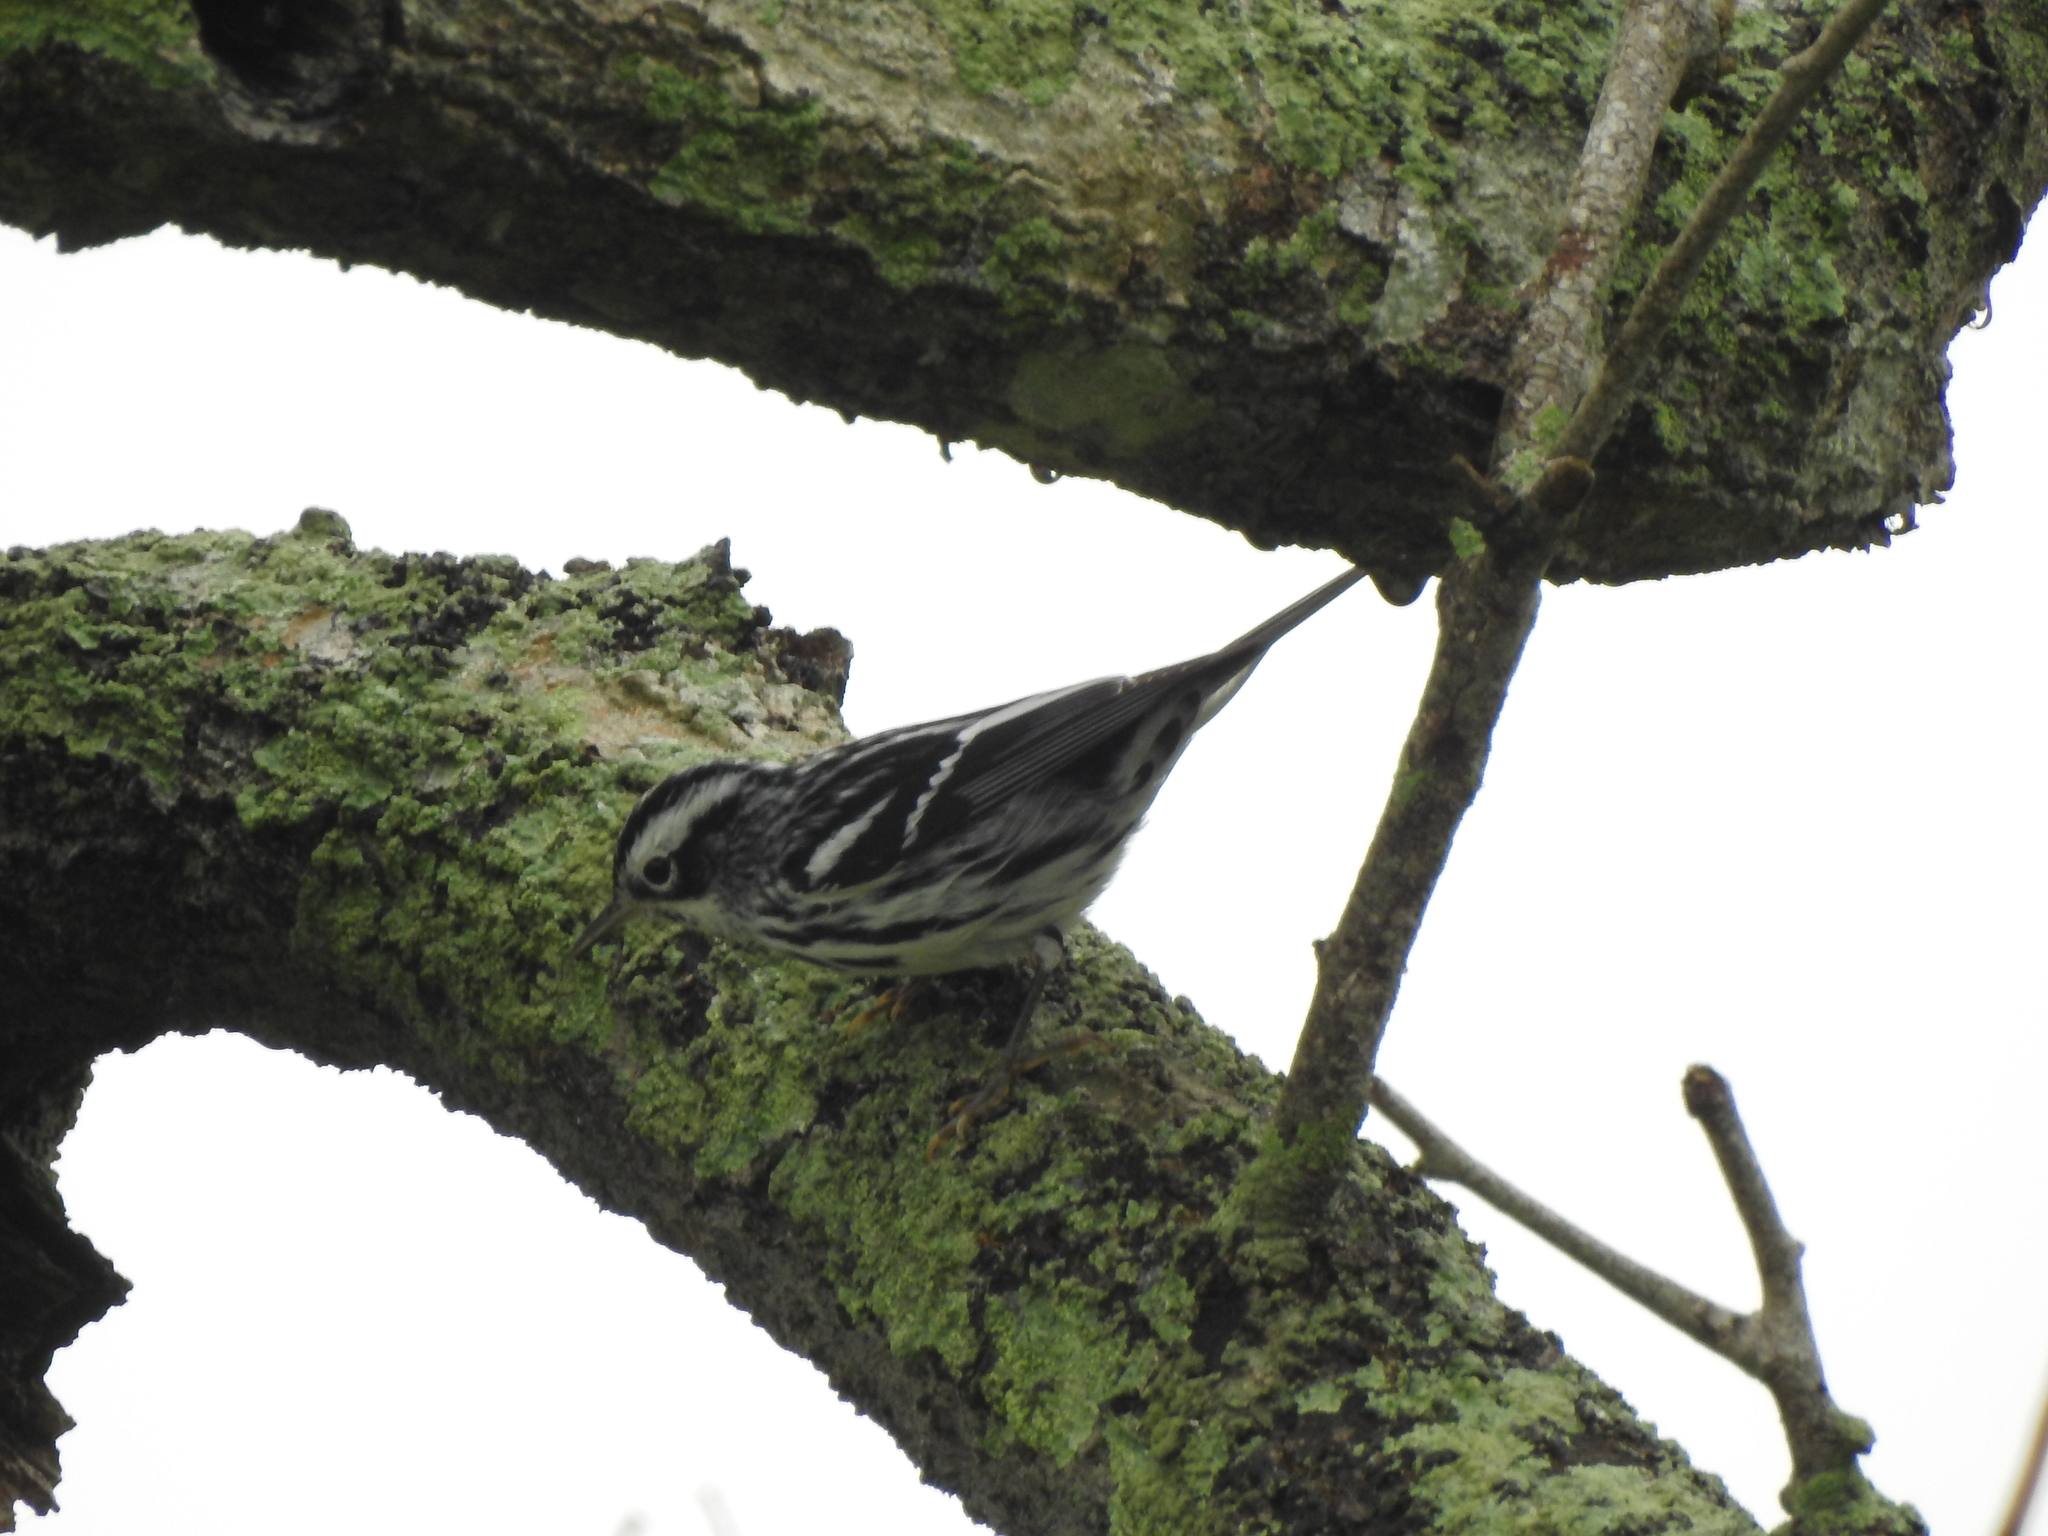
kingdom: Animalia
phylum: Chordata
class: Aves
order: Passeriformes
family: Parulidae
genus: Mniotilta
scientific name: Mniotilta varia
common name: Black-and-white warbler
